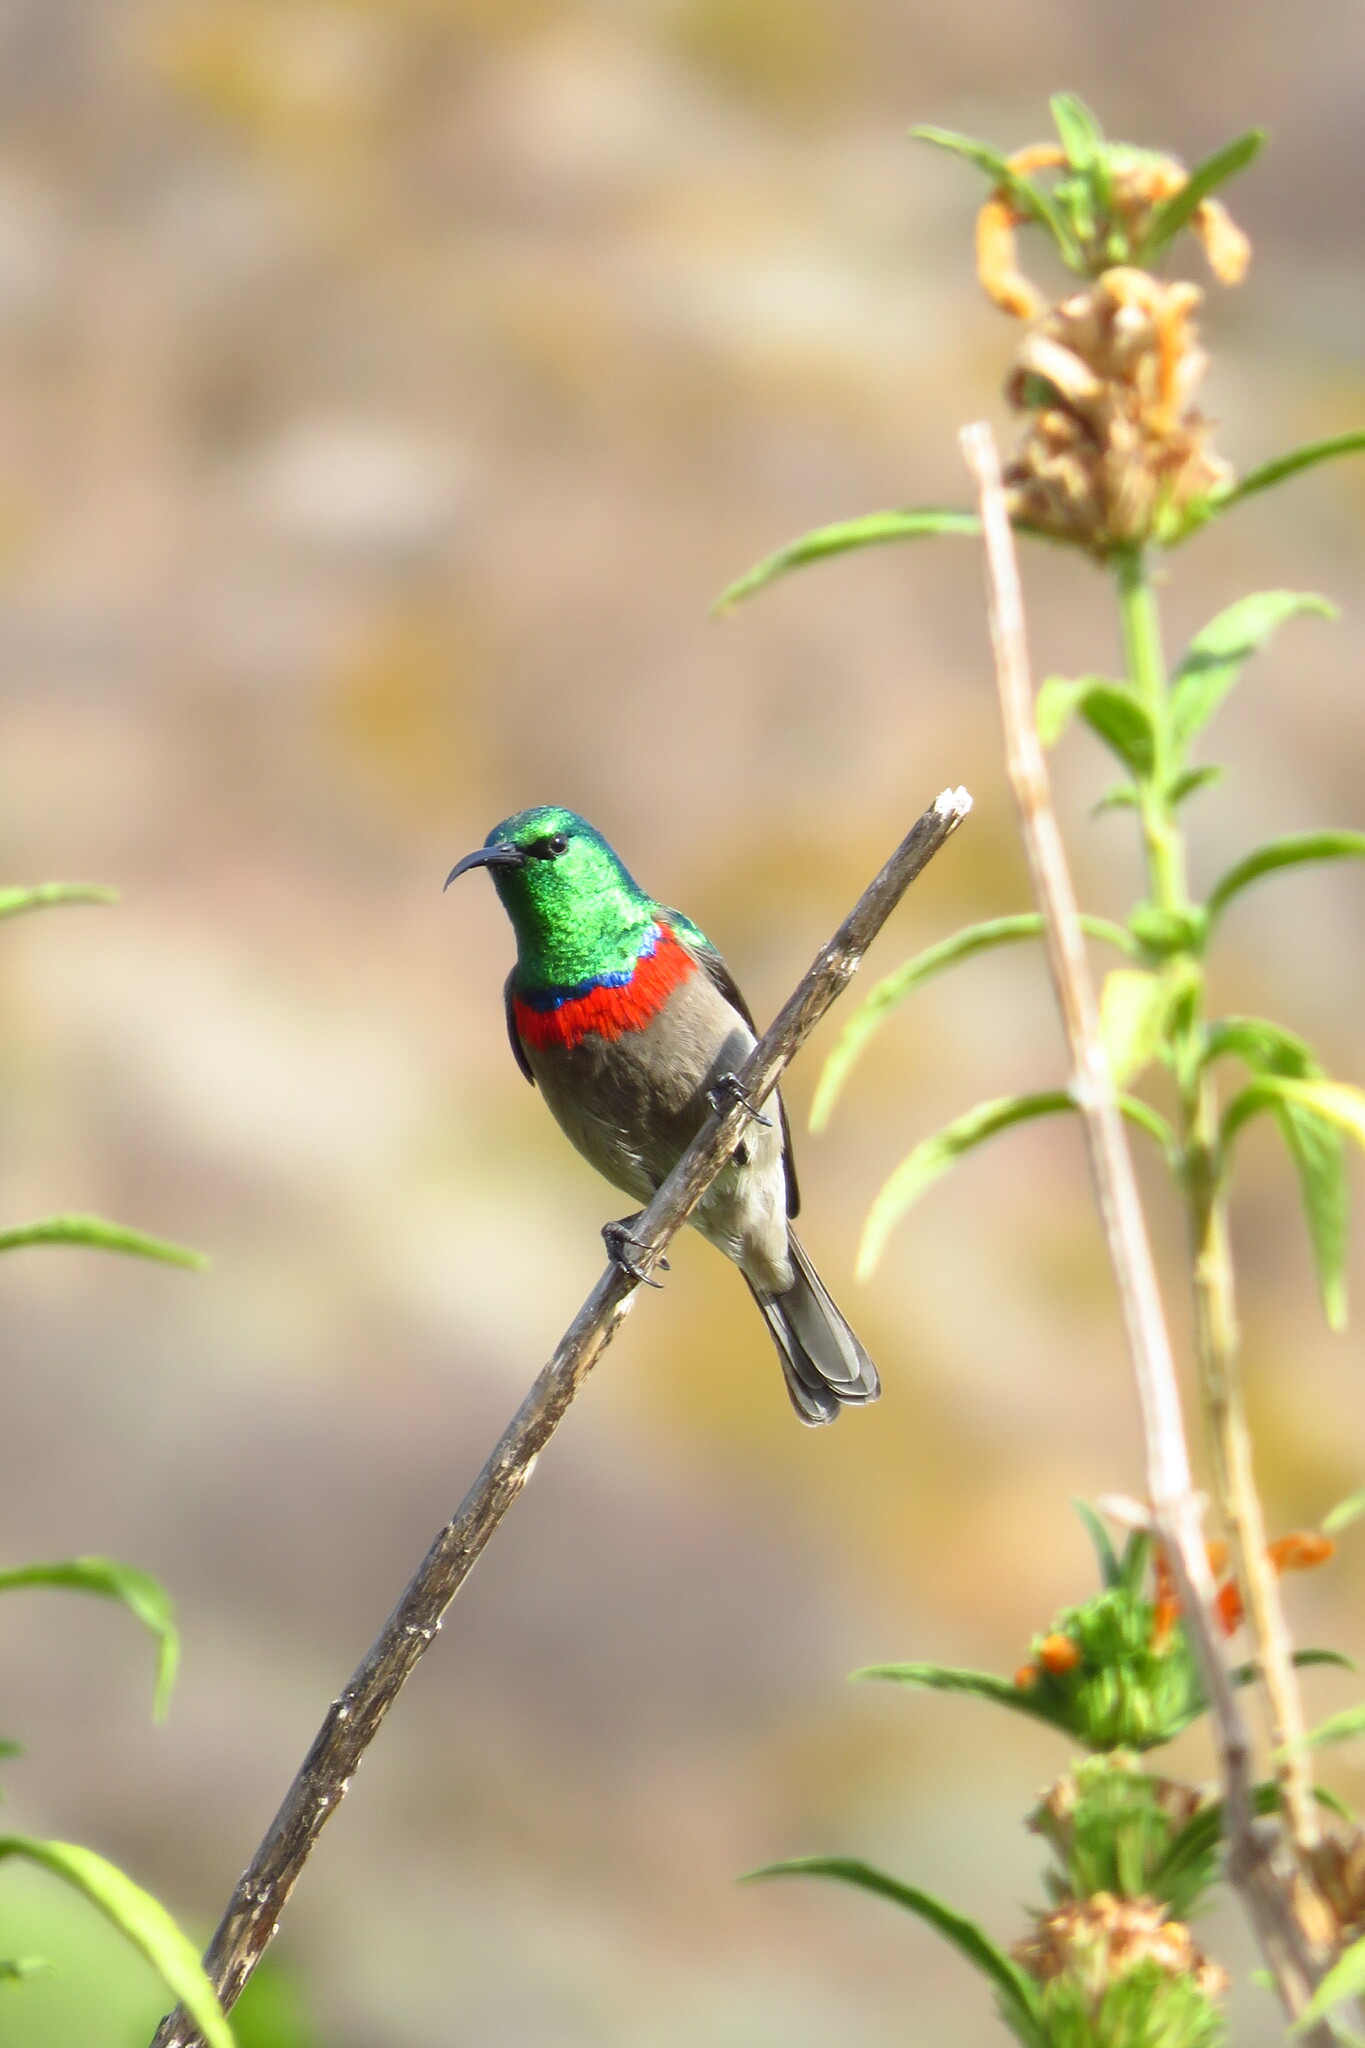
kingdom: Animalia
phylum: Chordata
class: Aves
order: Passeriformes
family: Nectariniidae
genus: Cinnyris
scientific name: Cinnyris chalybeus
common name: Southern double-collared sunbird
